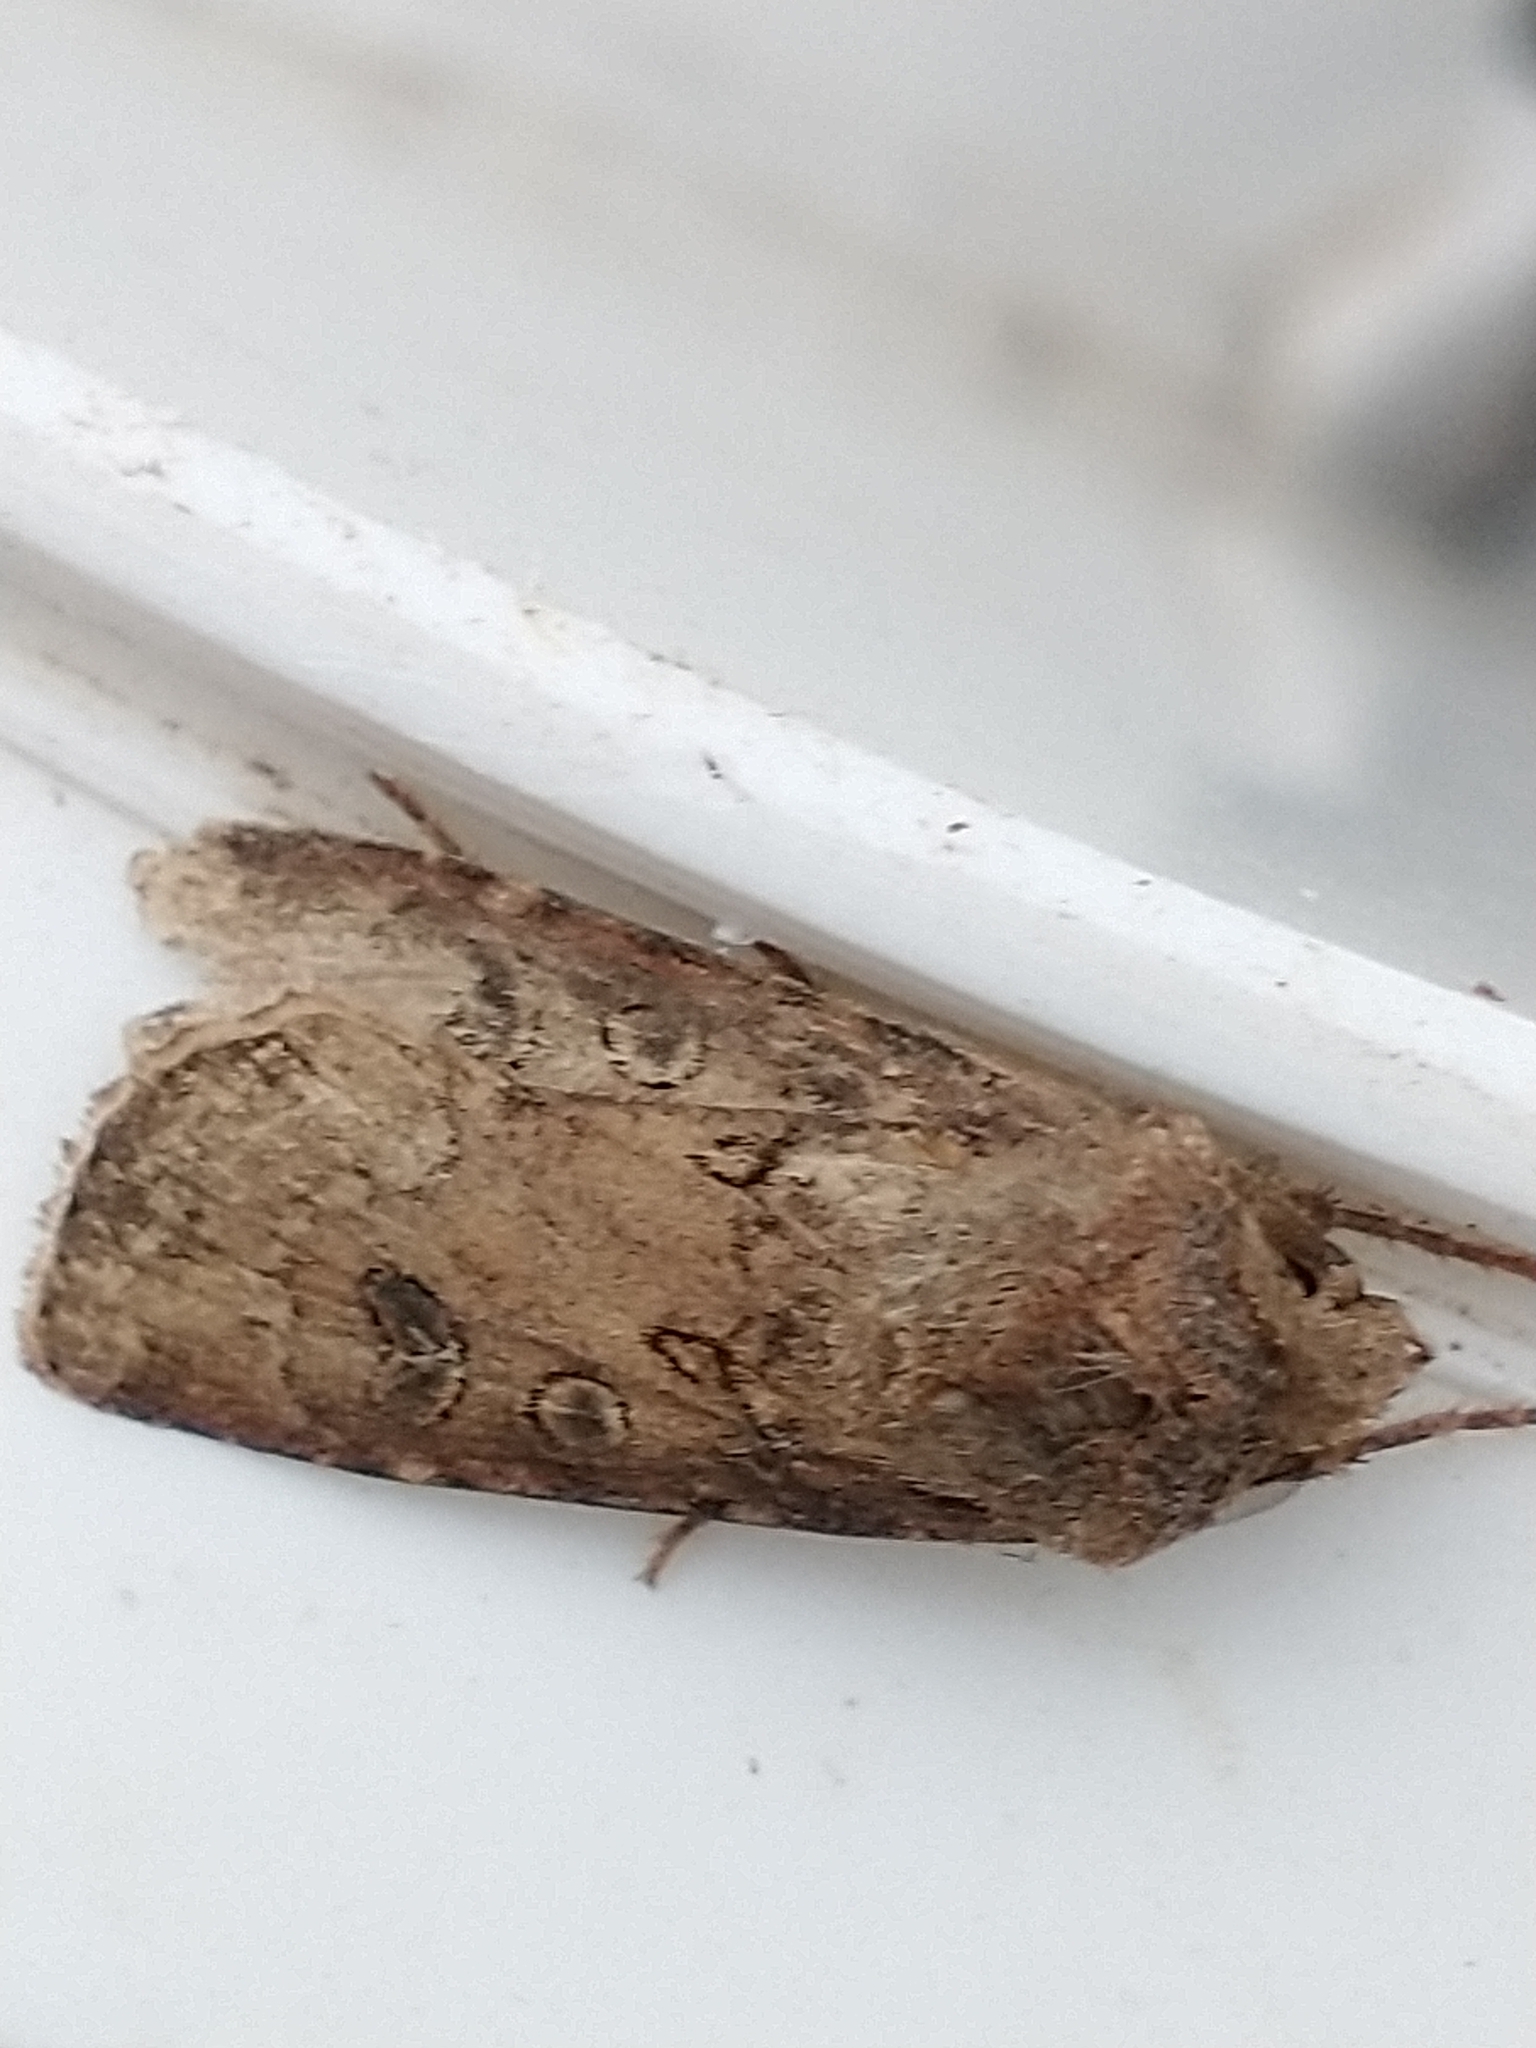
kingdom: Animalia
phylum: Arthropoda
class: Insecta
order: Lepidoptera
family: Noctuidae
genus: Agrotis
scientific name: Agrotis segetum
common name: Turnip moth
